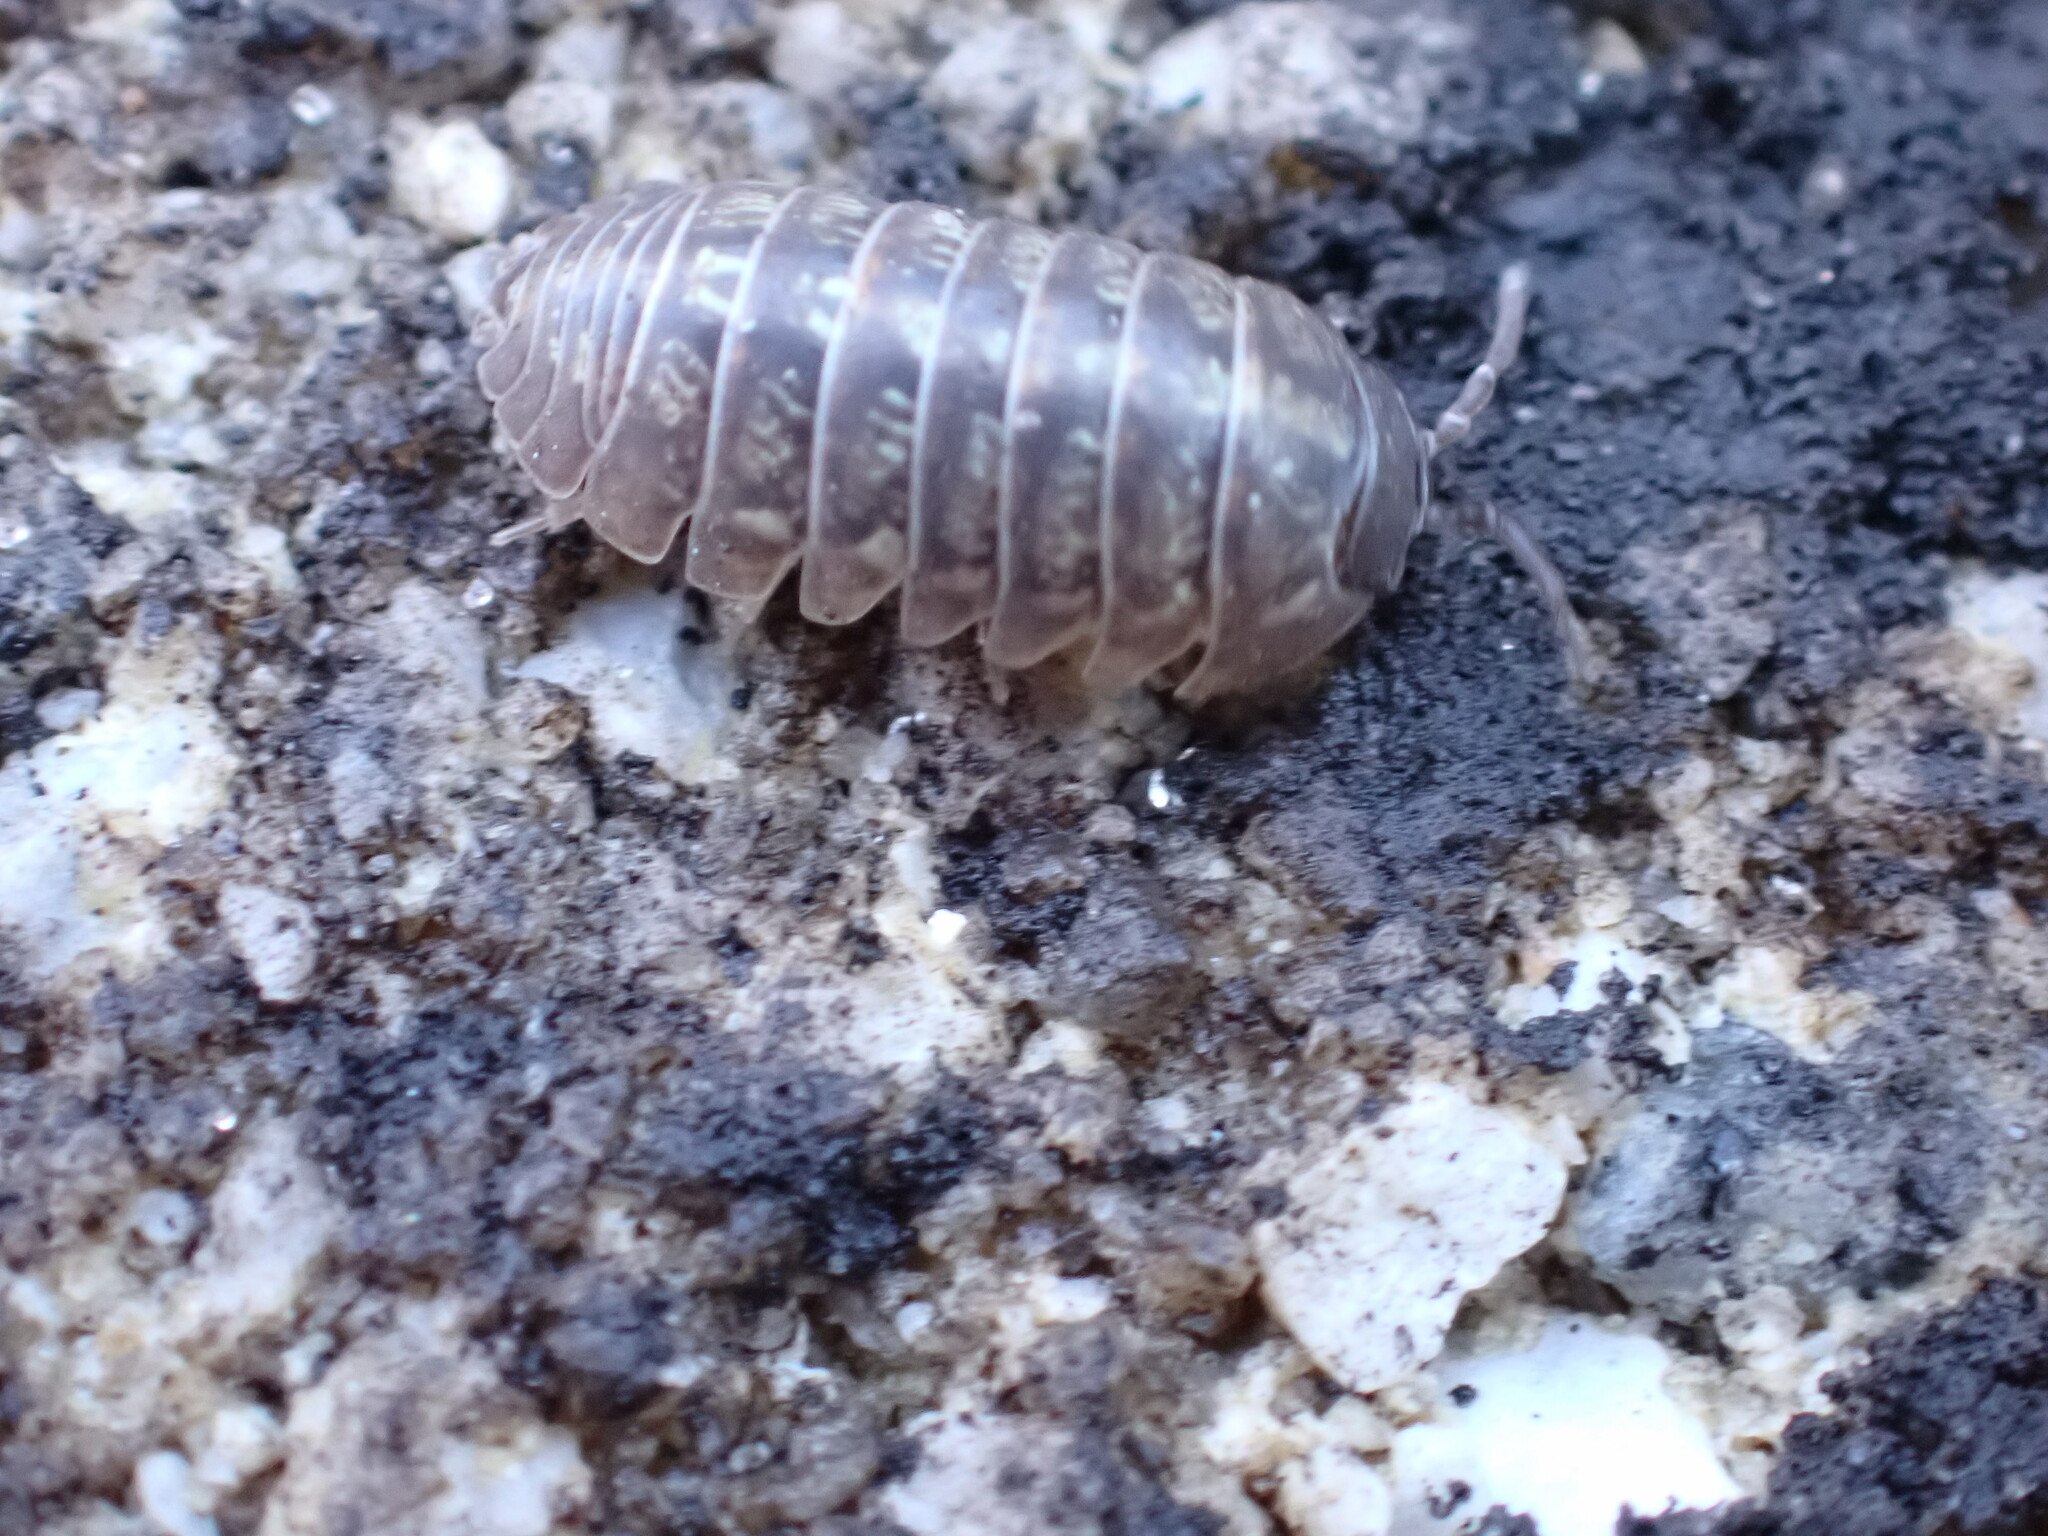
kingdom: Animalia
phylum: Arthropoda
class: Malacostraca
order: Isopoda
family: Armadillidiidae
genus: Armadillidium
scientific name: Armadillidium vulgare
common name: Common pill woodlouse
